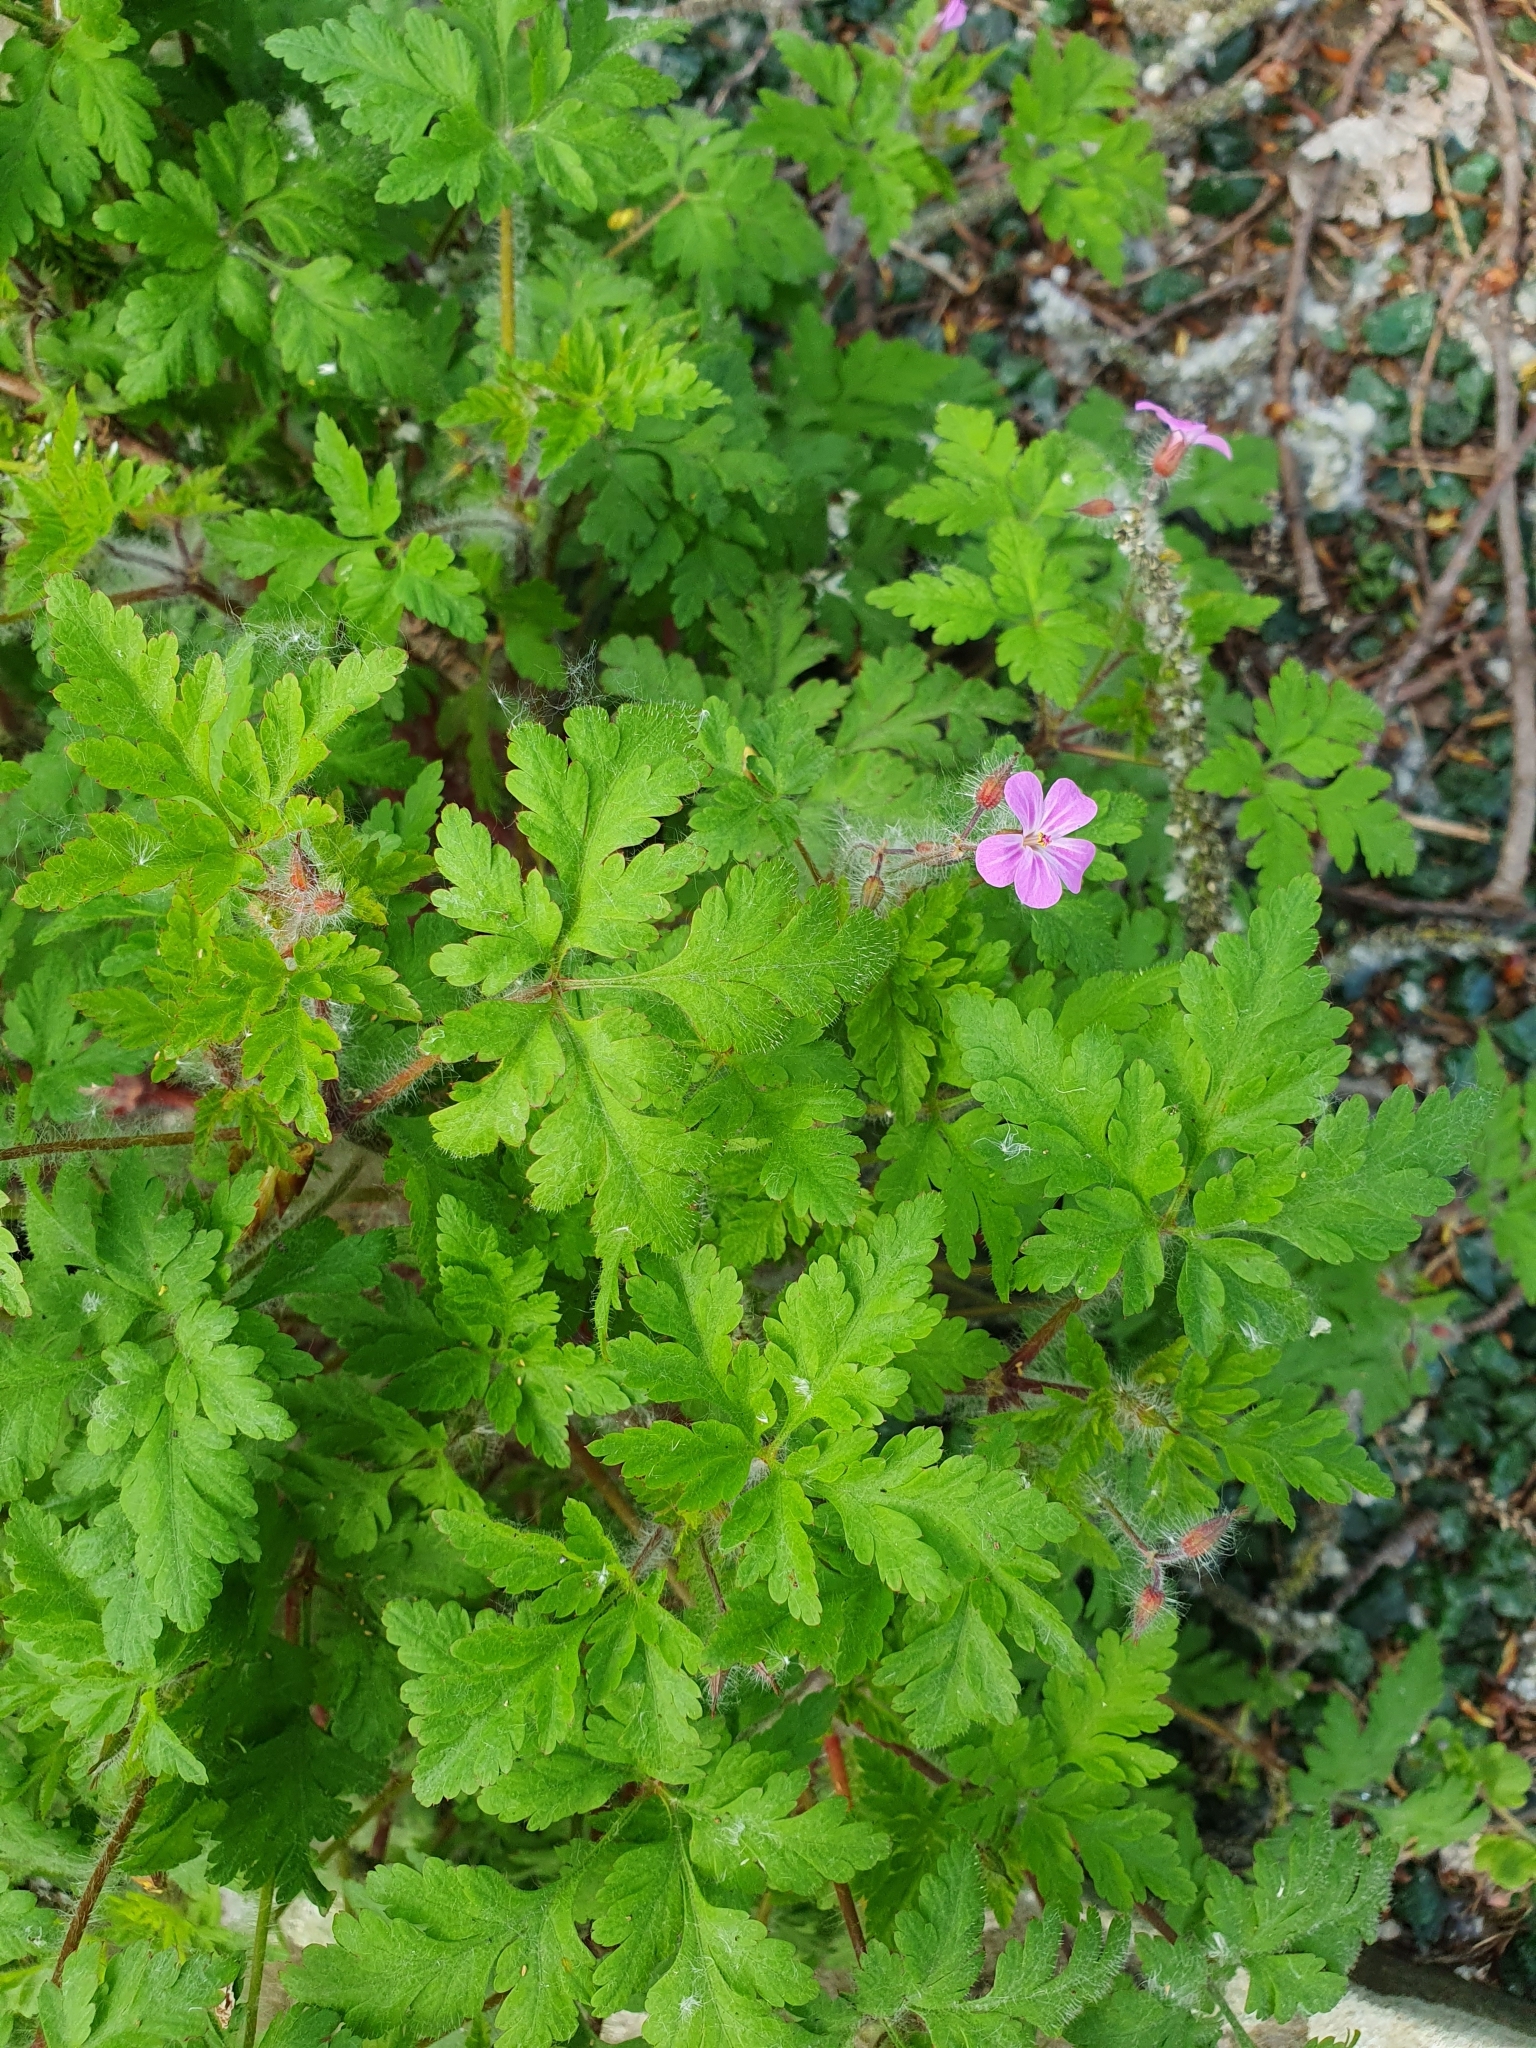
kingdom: Plantae
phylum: Tracheophyta
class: Magnoliopsida
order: Geraniales
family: Geraniaceae
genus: Geranium
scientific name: Geranium robertianum
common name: Herb-robert
